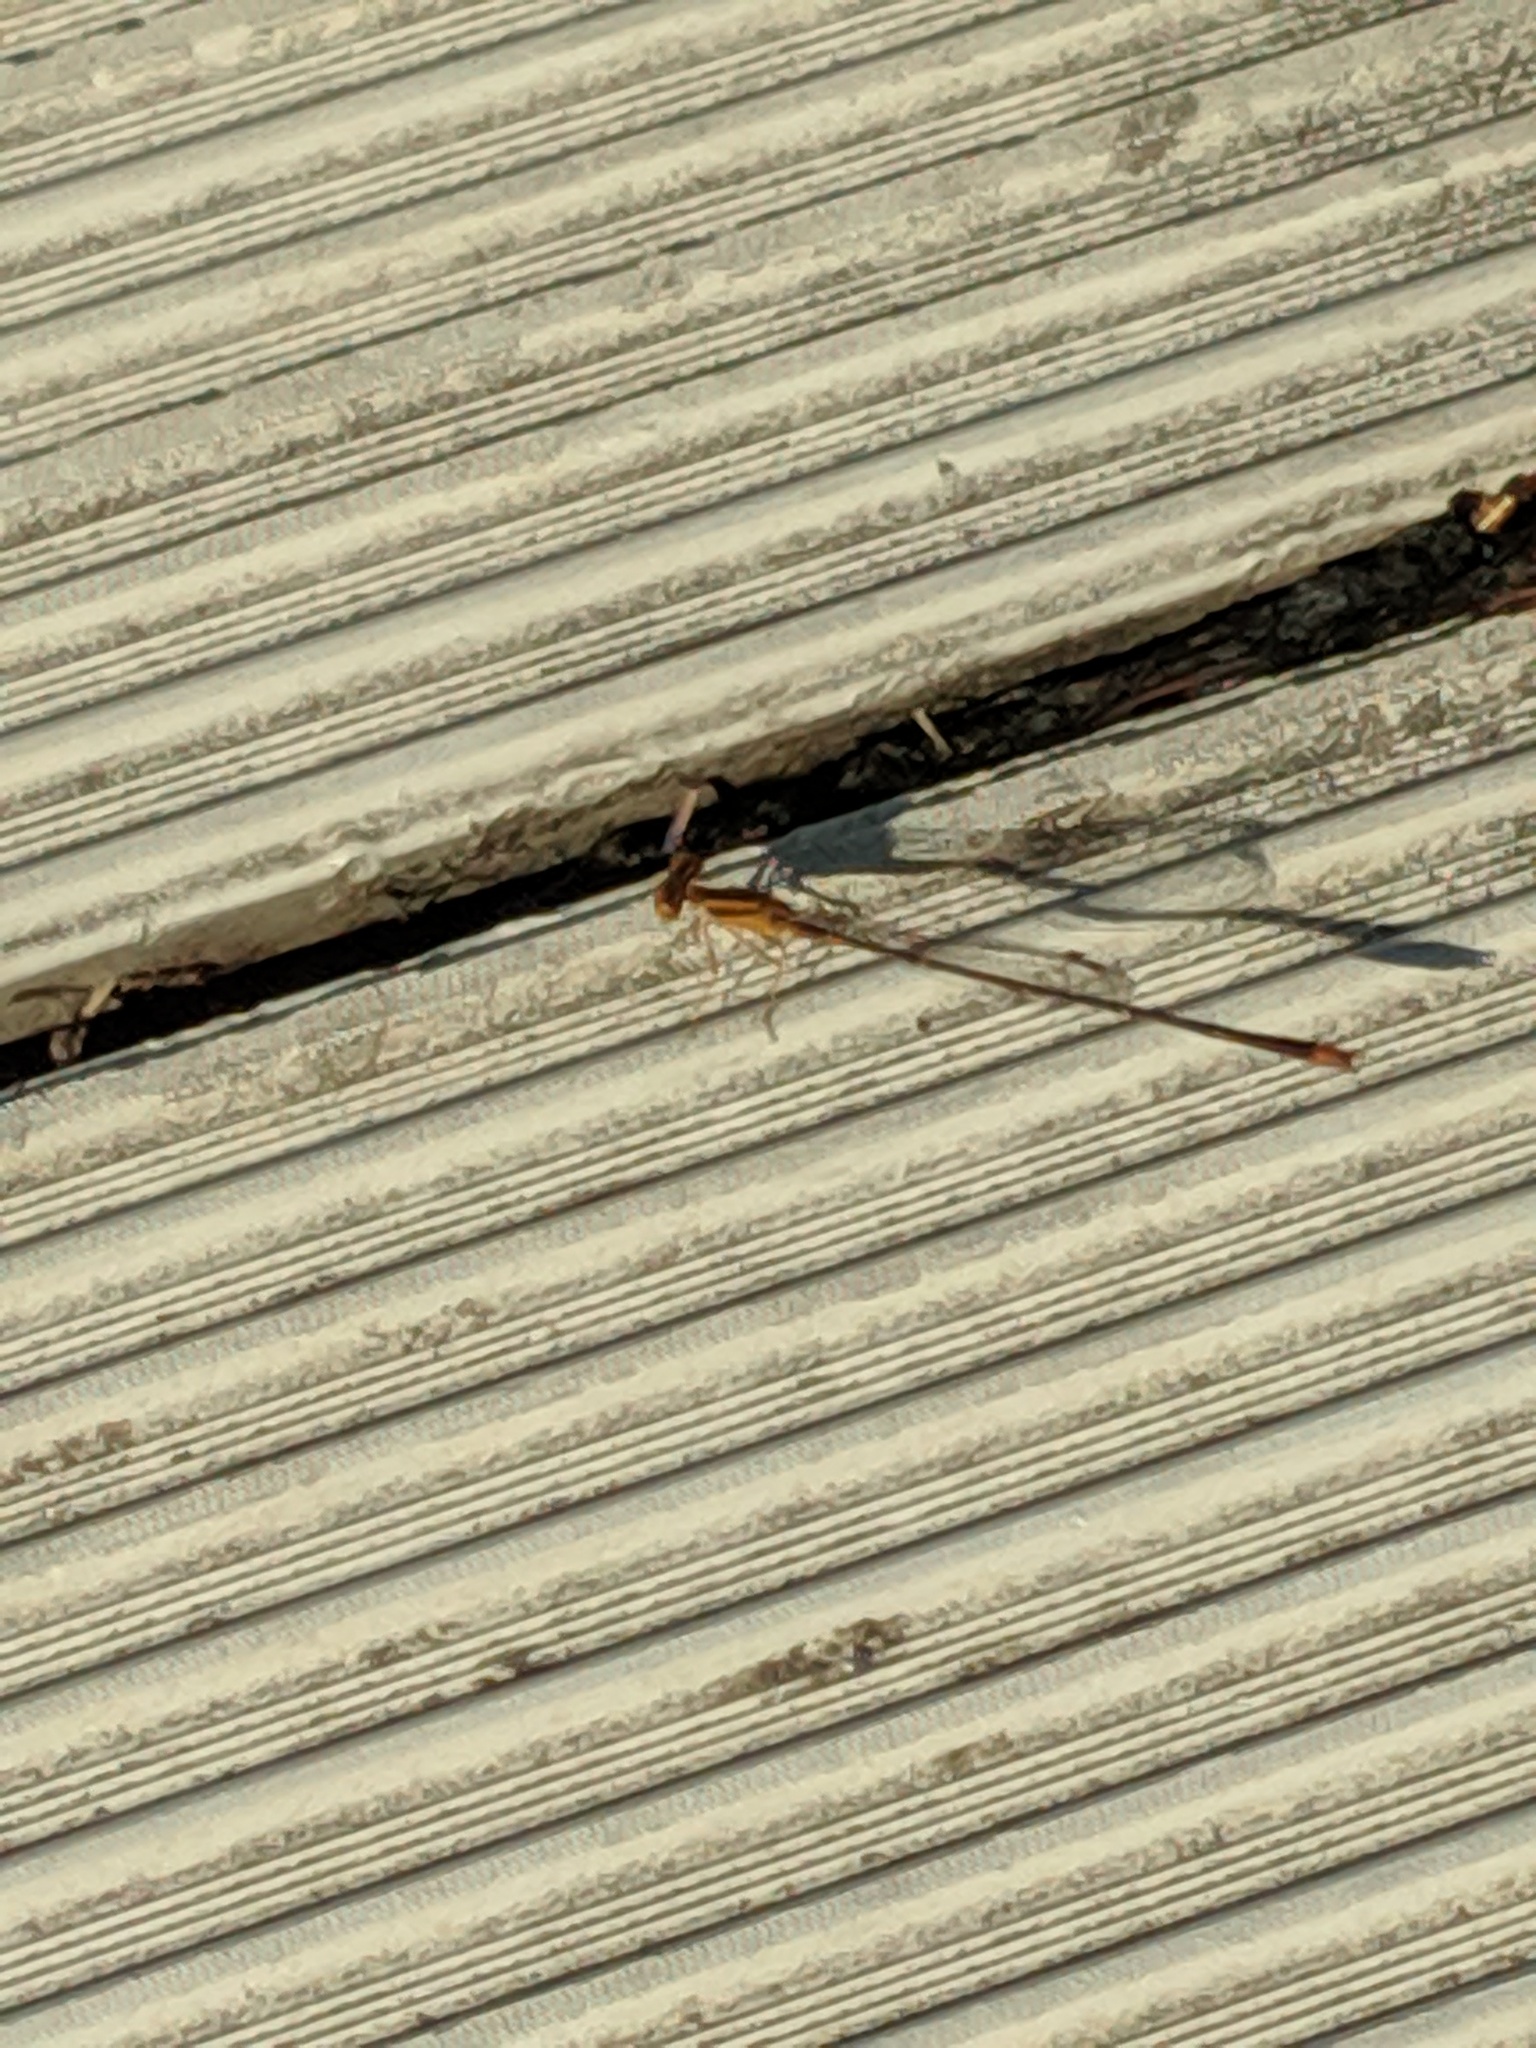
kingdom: Animalia
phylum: Arthropoda
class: Insecta
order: Odonata
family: Coenagrionidae
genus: Enallagma
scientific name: Enallagma signatum
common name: Orange bluet
